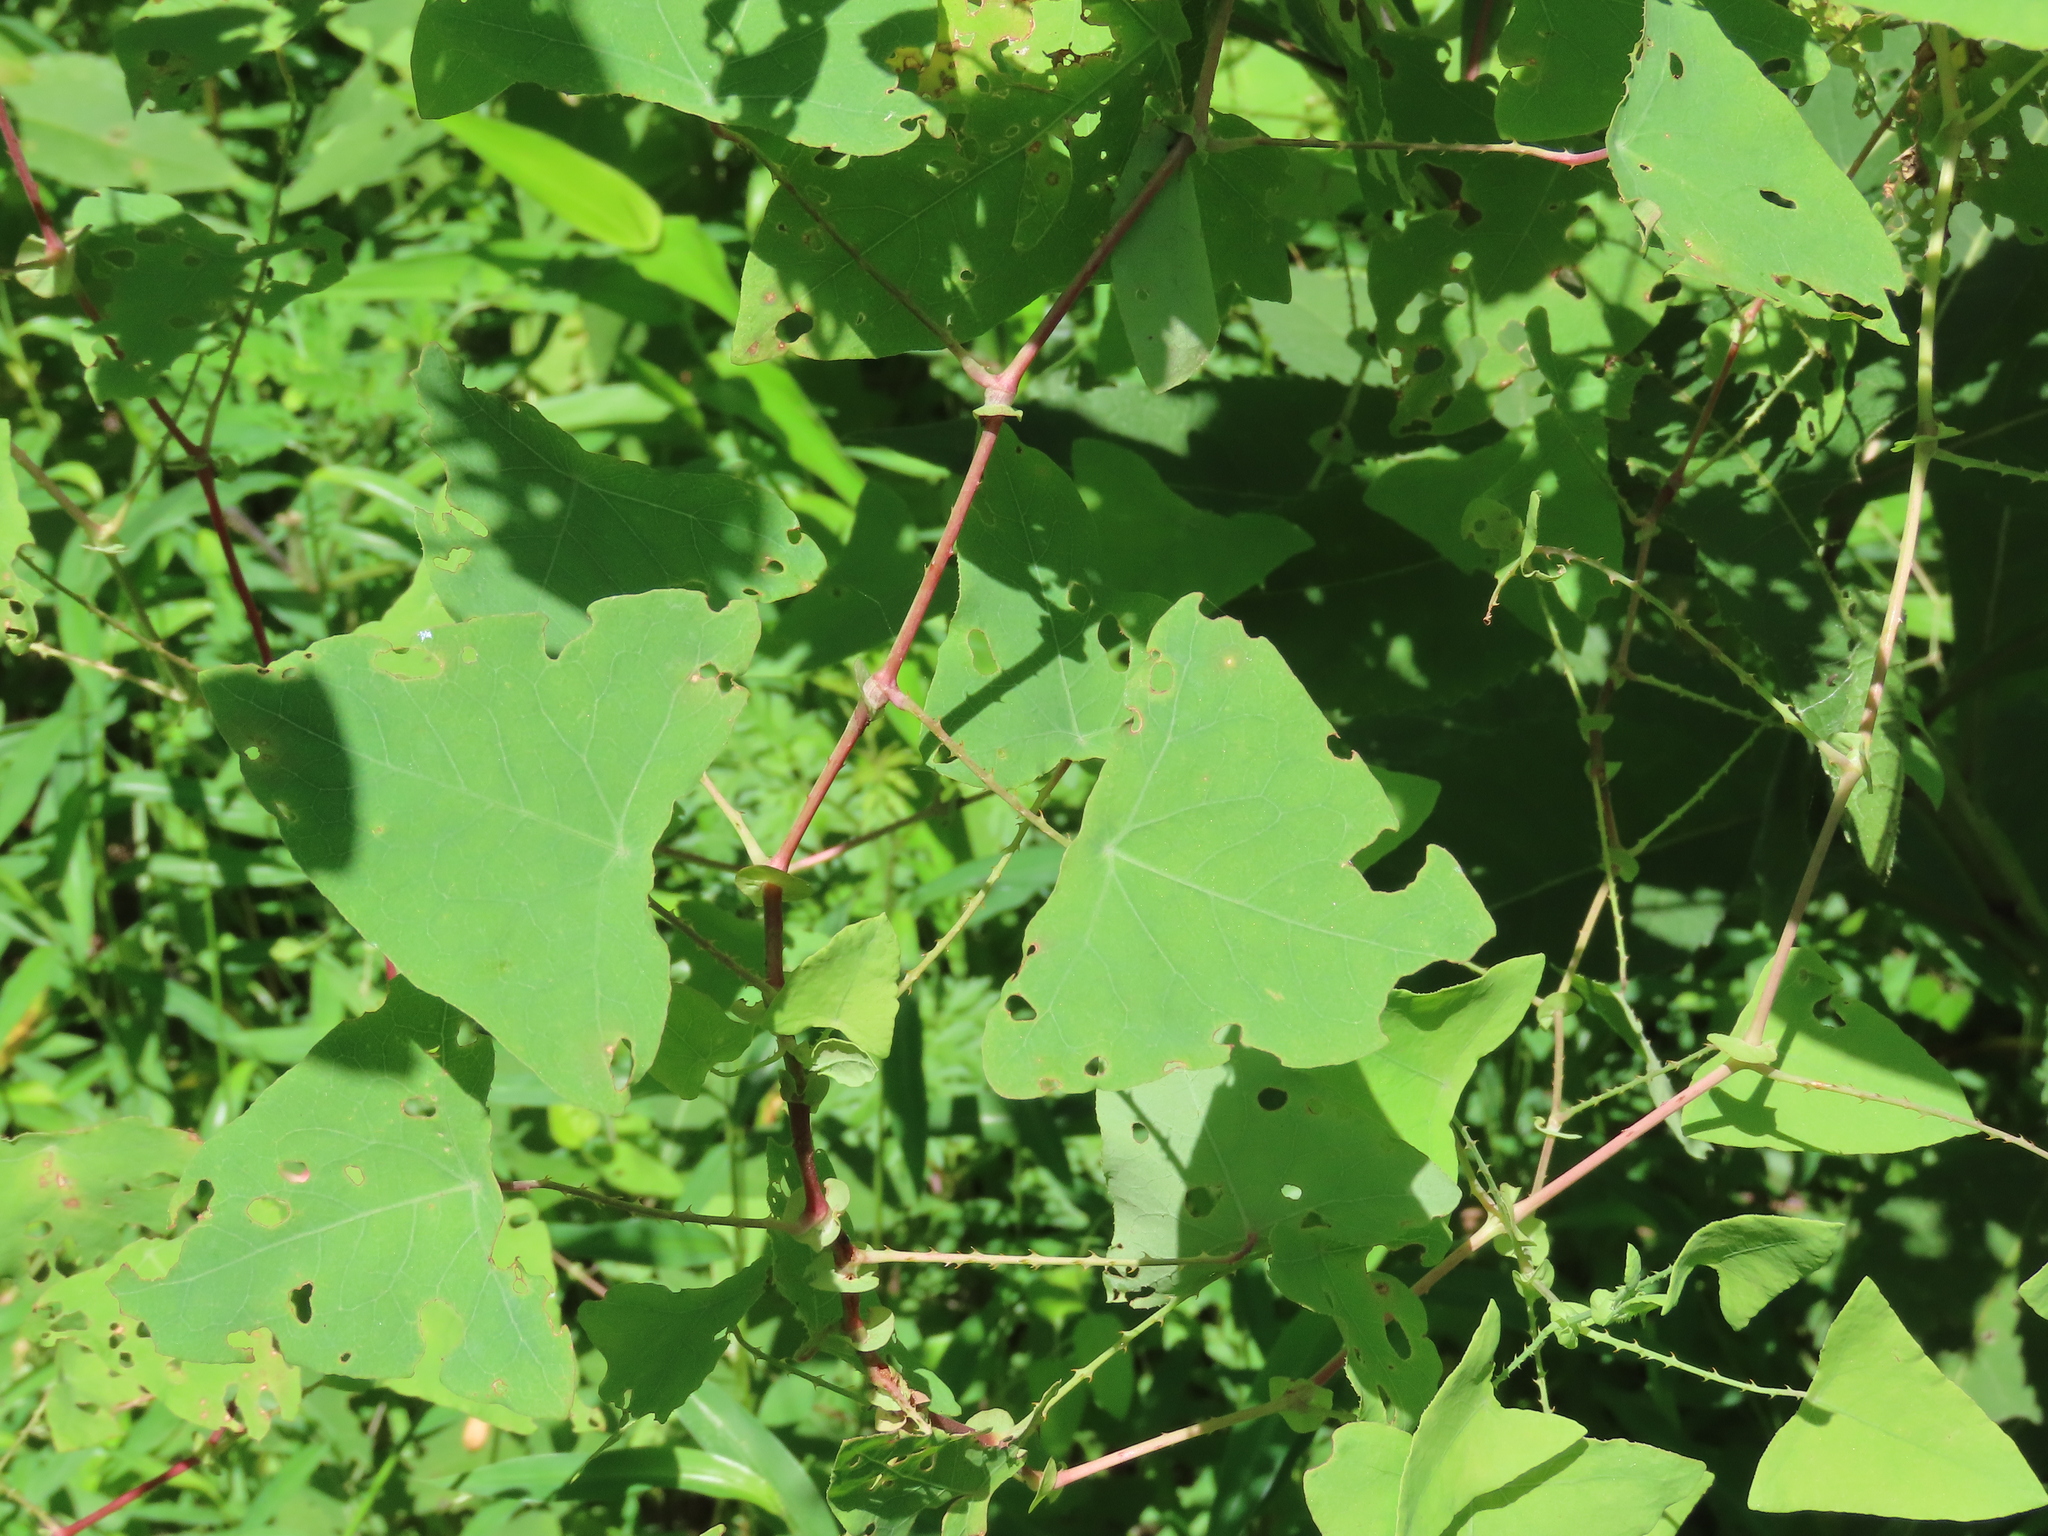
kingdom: Plantae
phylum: Tracheophyta
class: Magnoliopsida
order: Caryophyllales
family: Polygonaceae
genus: Persicaria
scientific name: Persicaria perfoliata
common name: Asiatic tearthumb
